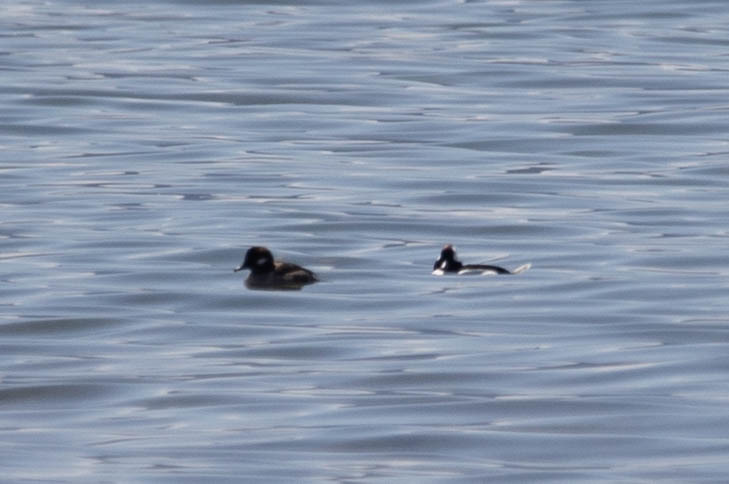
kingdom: Animalia
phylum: Chordata
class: Aves
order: Anseriformes
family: Anatidae
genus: Bucephala
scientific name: Bucephala albeola
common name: Bufflehead
